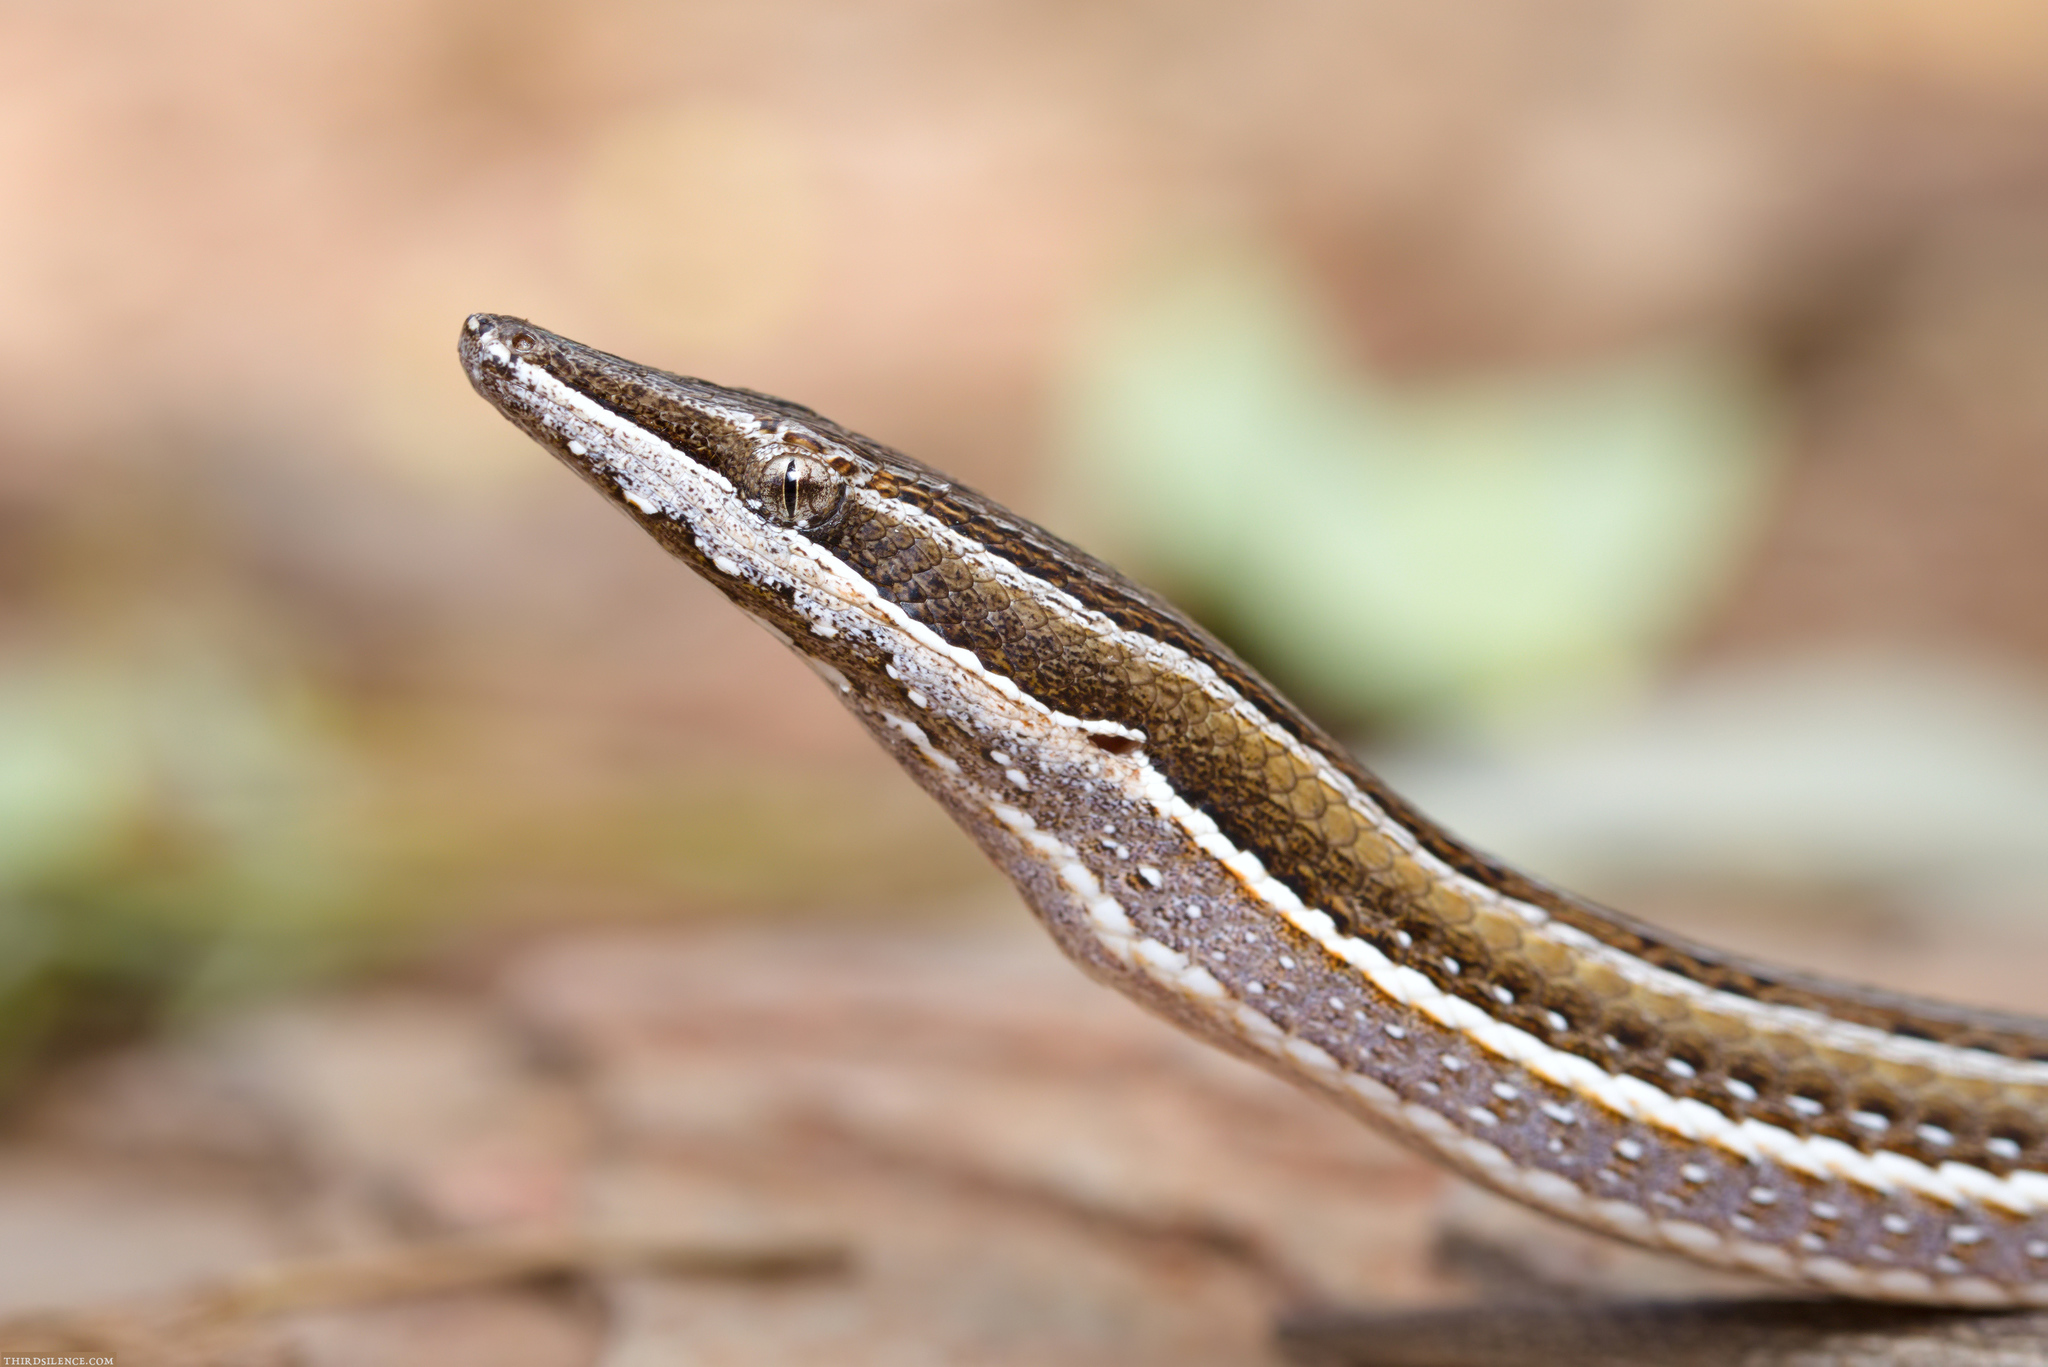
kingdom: Animalia
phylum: Chordata
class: Squamata
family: Pygopodidae
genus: Lialis
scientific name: Lialis burtonis
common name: Burton's legless lizard
